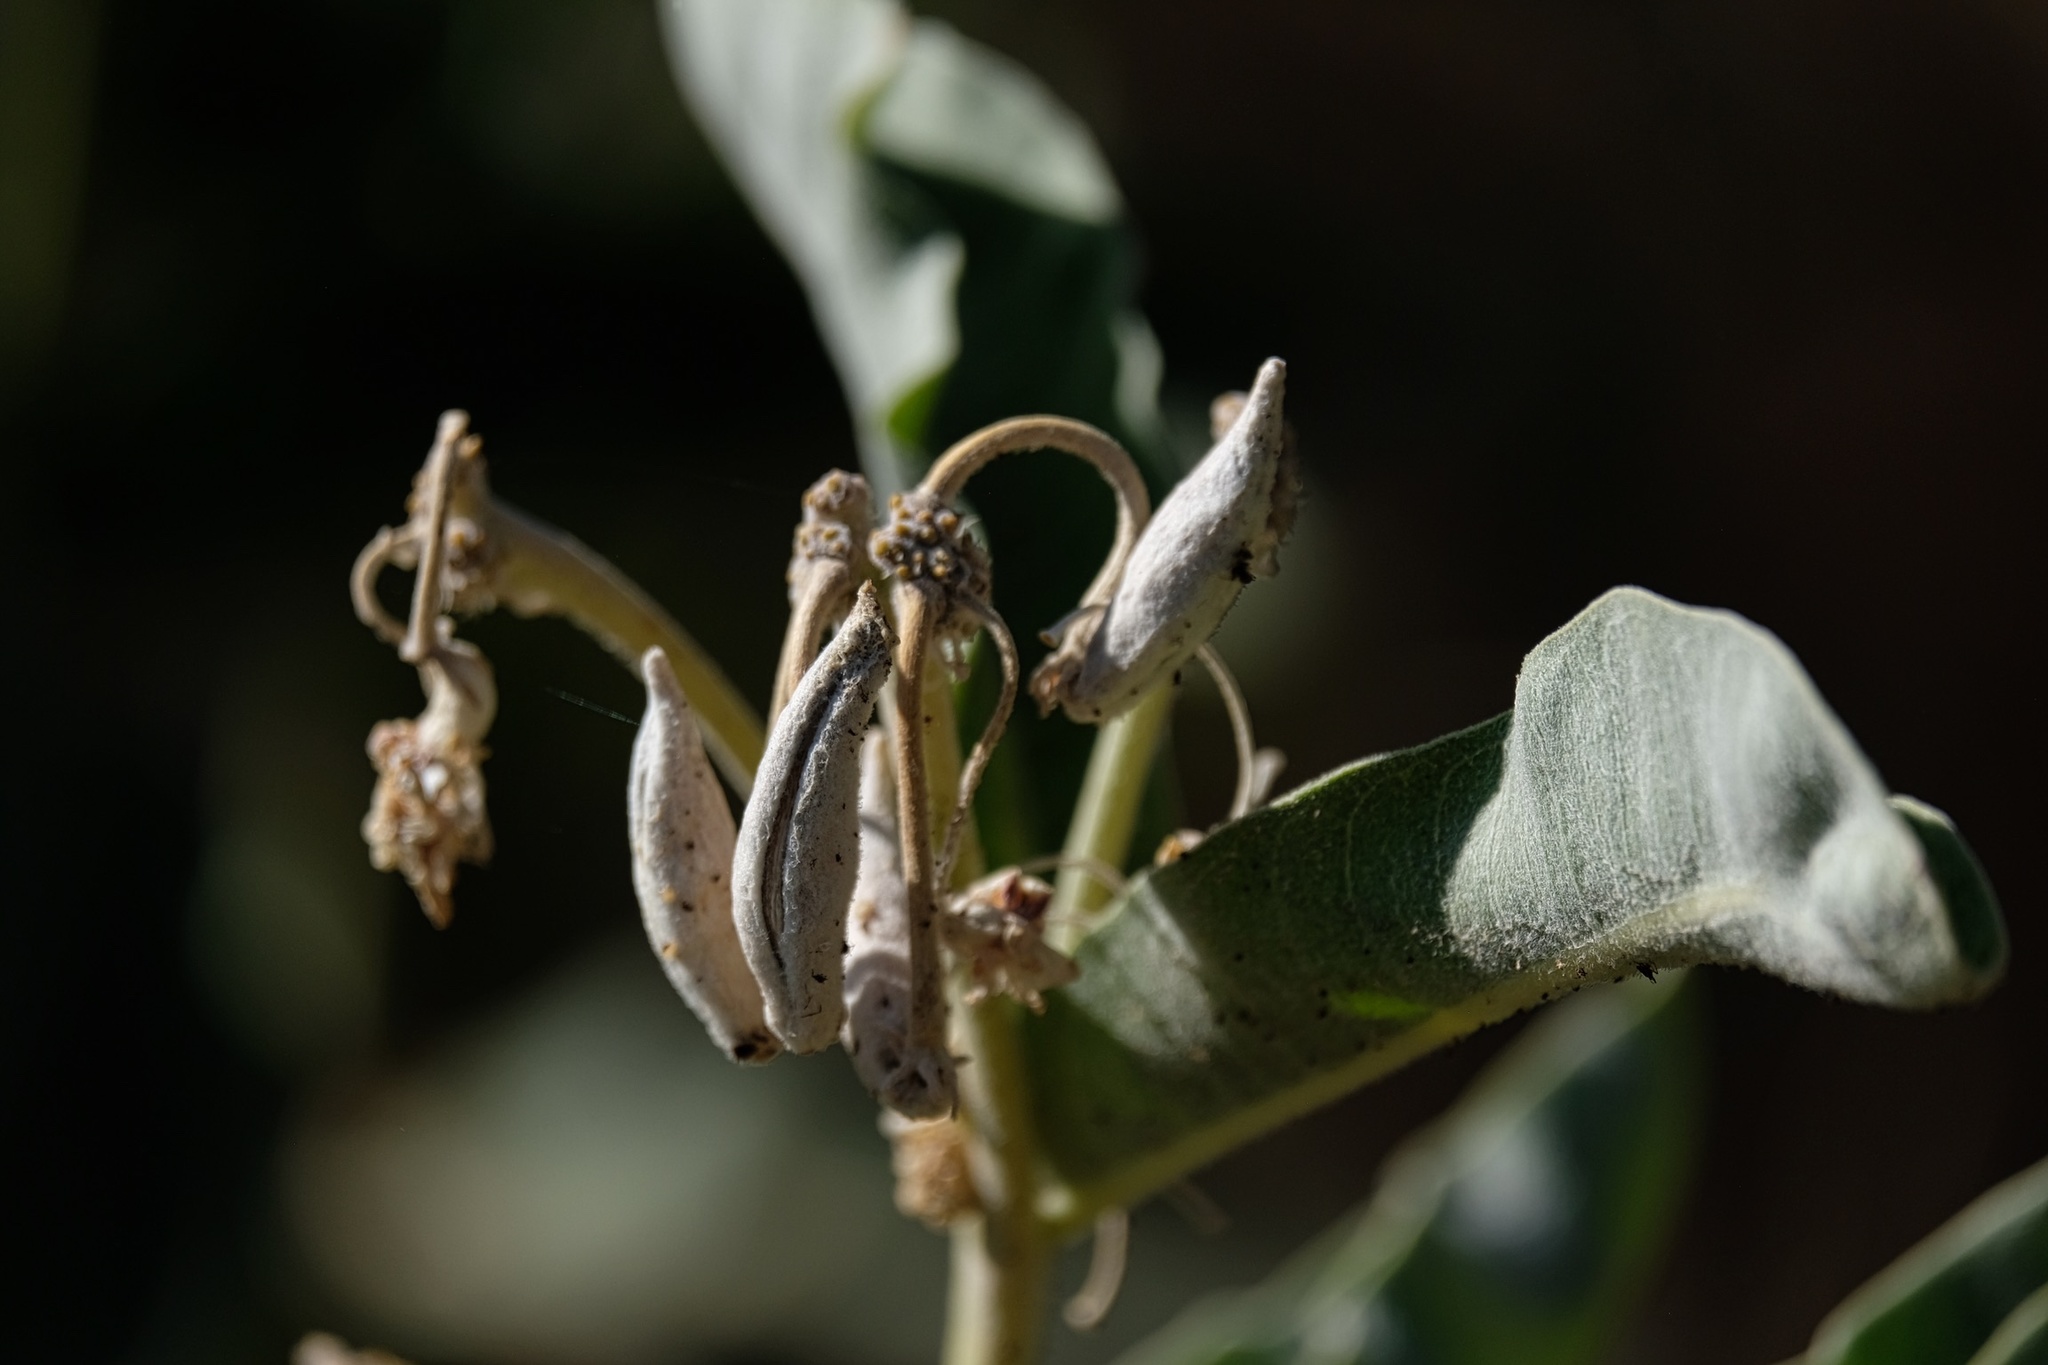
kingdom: Plantae
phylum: Tracheophyta
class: Magnoliopsida
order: Gentianales
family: Apocynaceae
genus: Asclepias
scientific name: Asclepias eriocarpa
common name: Indian milkweed
